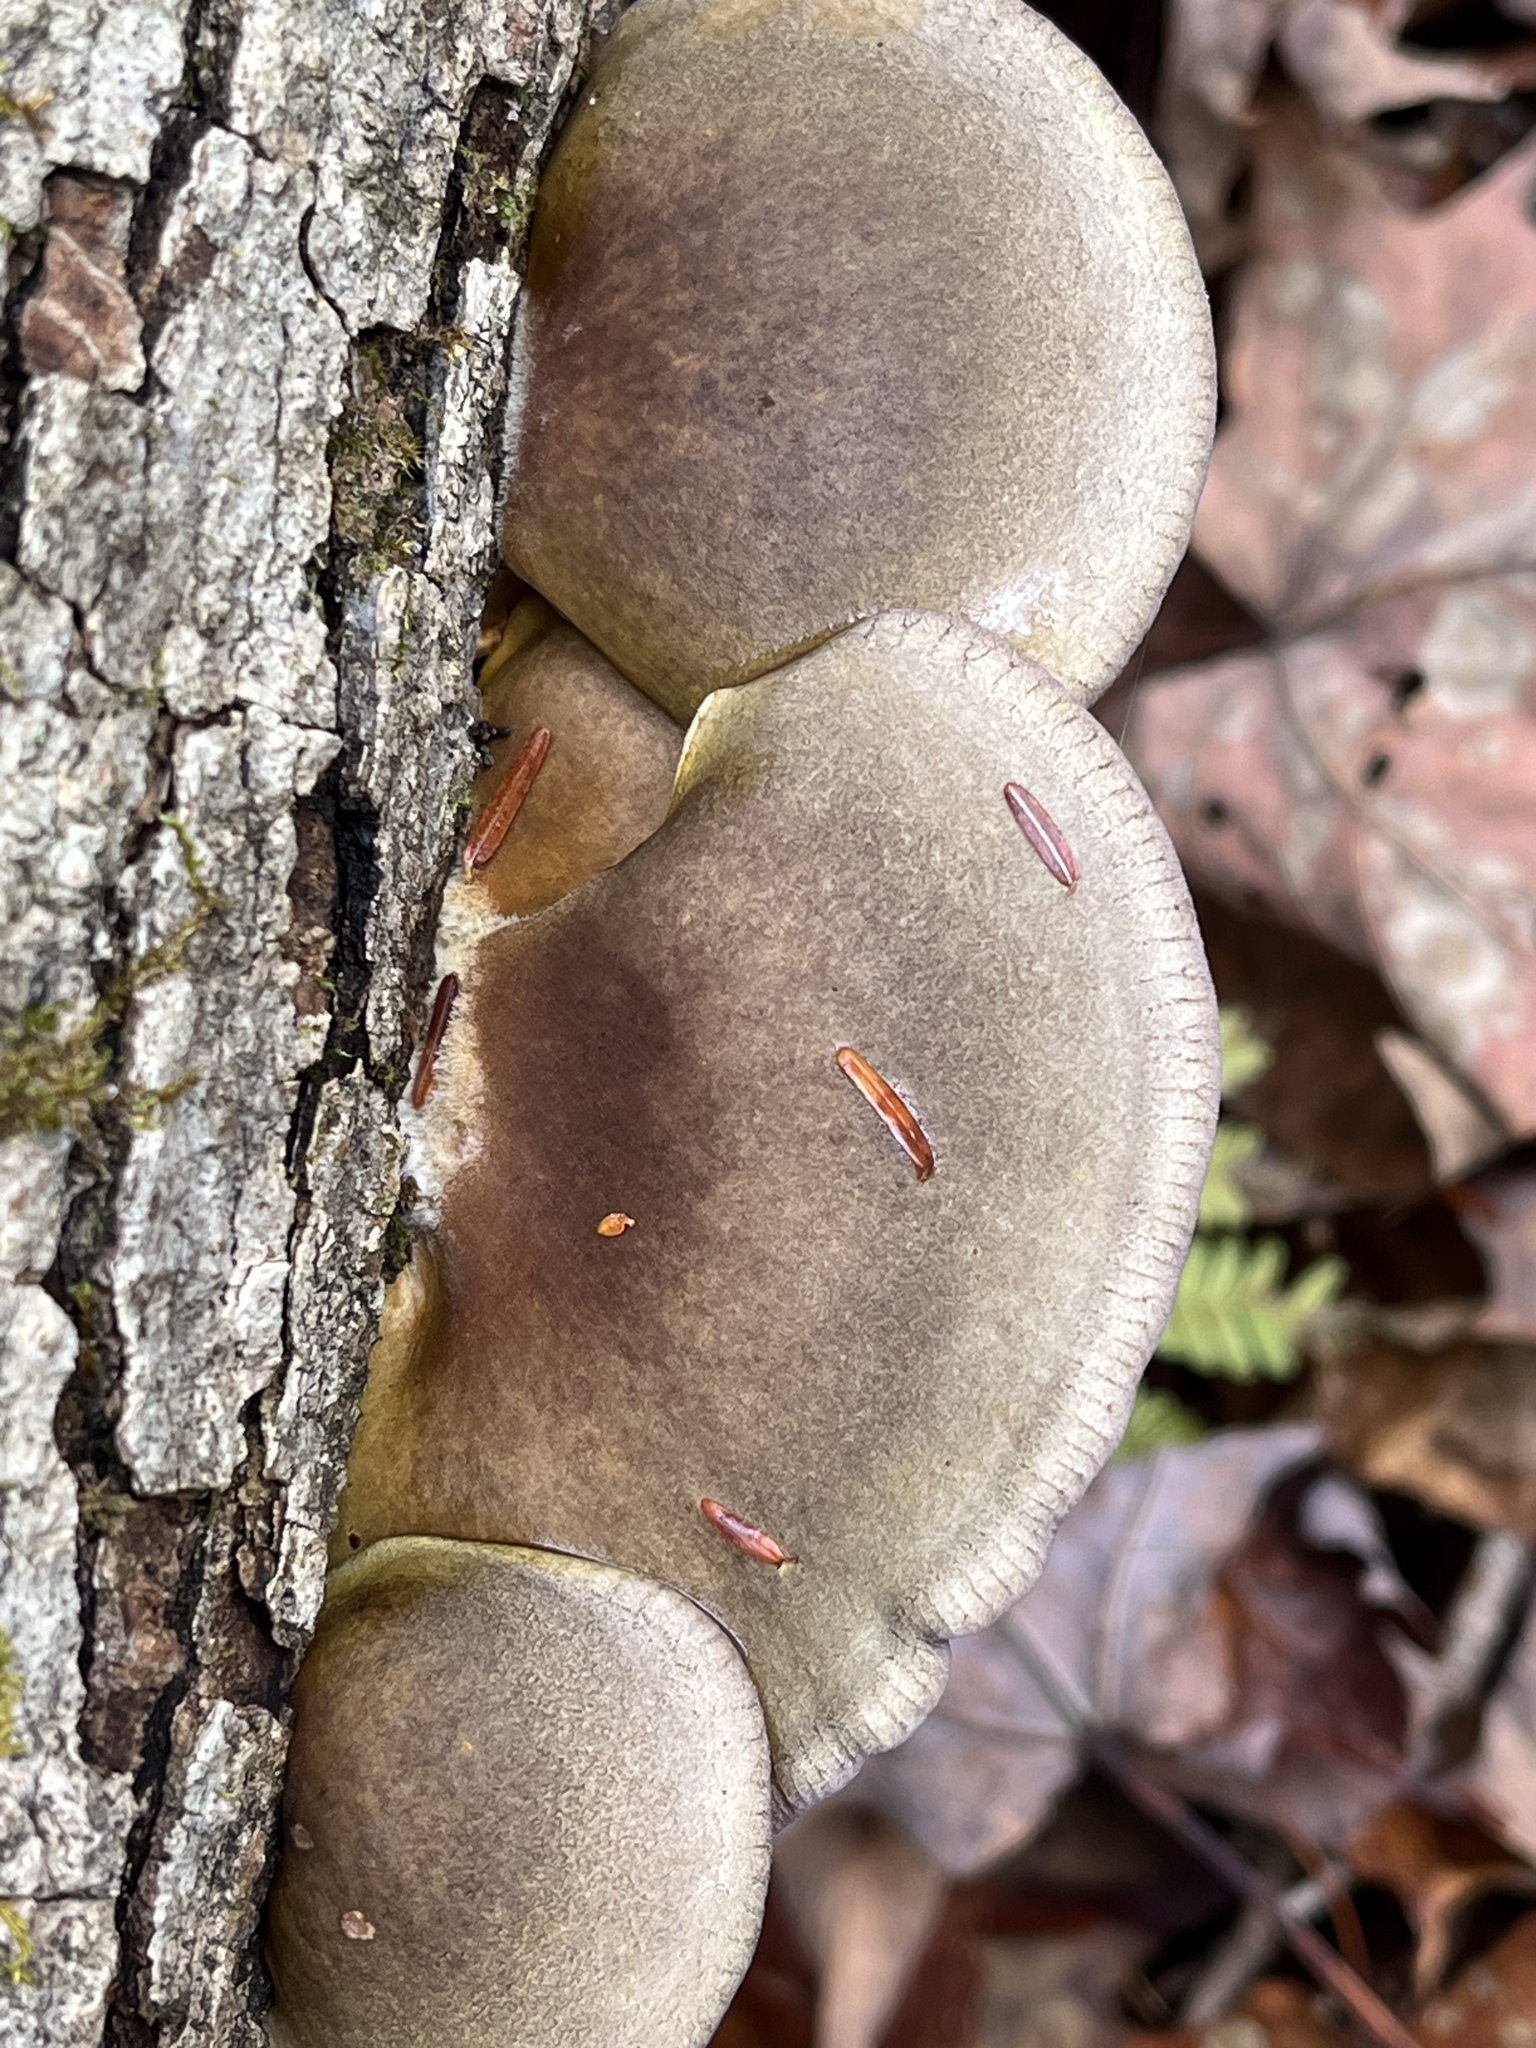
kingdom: Fungi
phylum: Basidiomycota
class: Agaricomycetes
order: Agaricales
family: Sarcomyxaceae
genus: Sarcomyxa
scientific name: Sarcomyxa serotina
